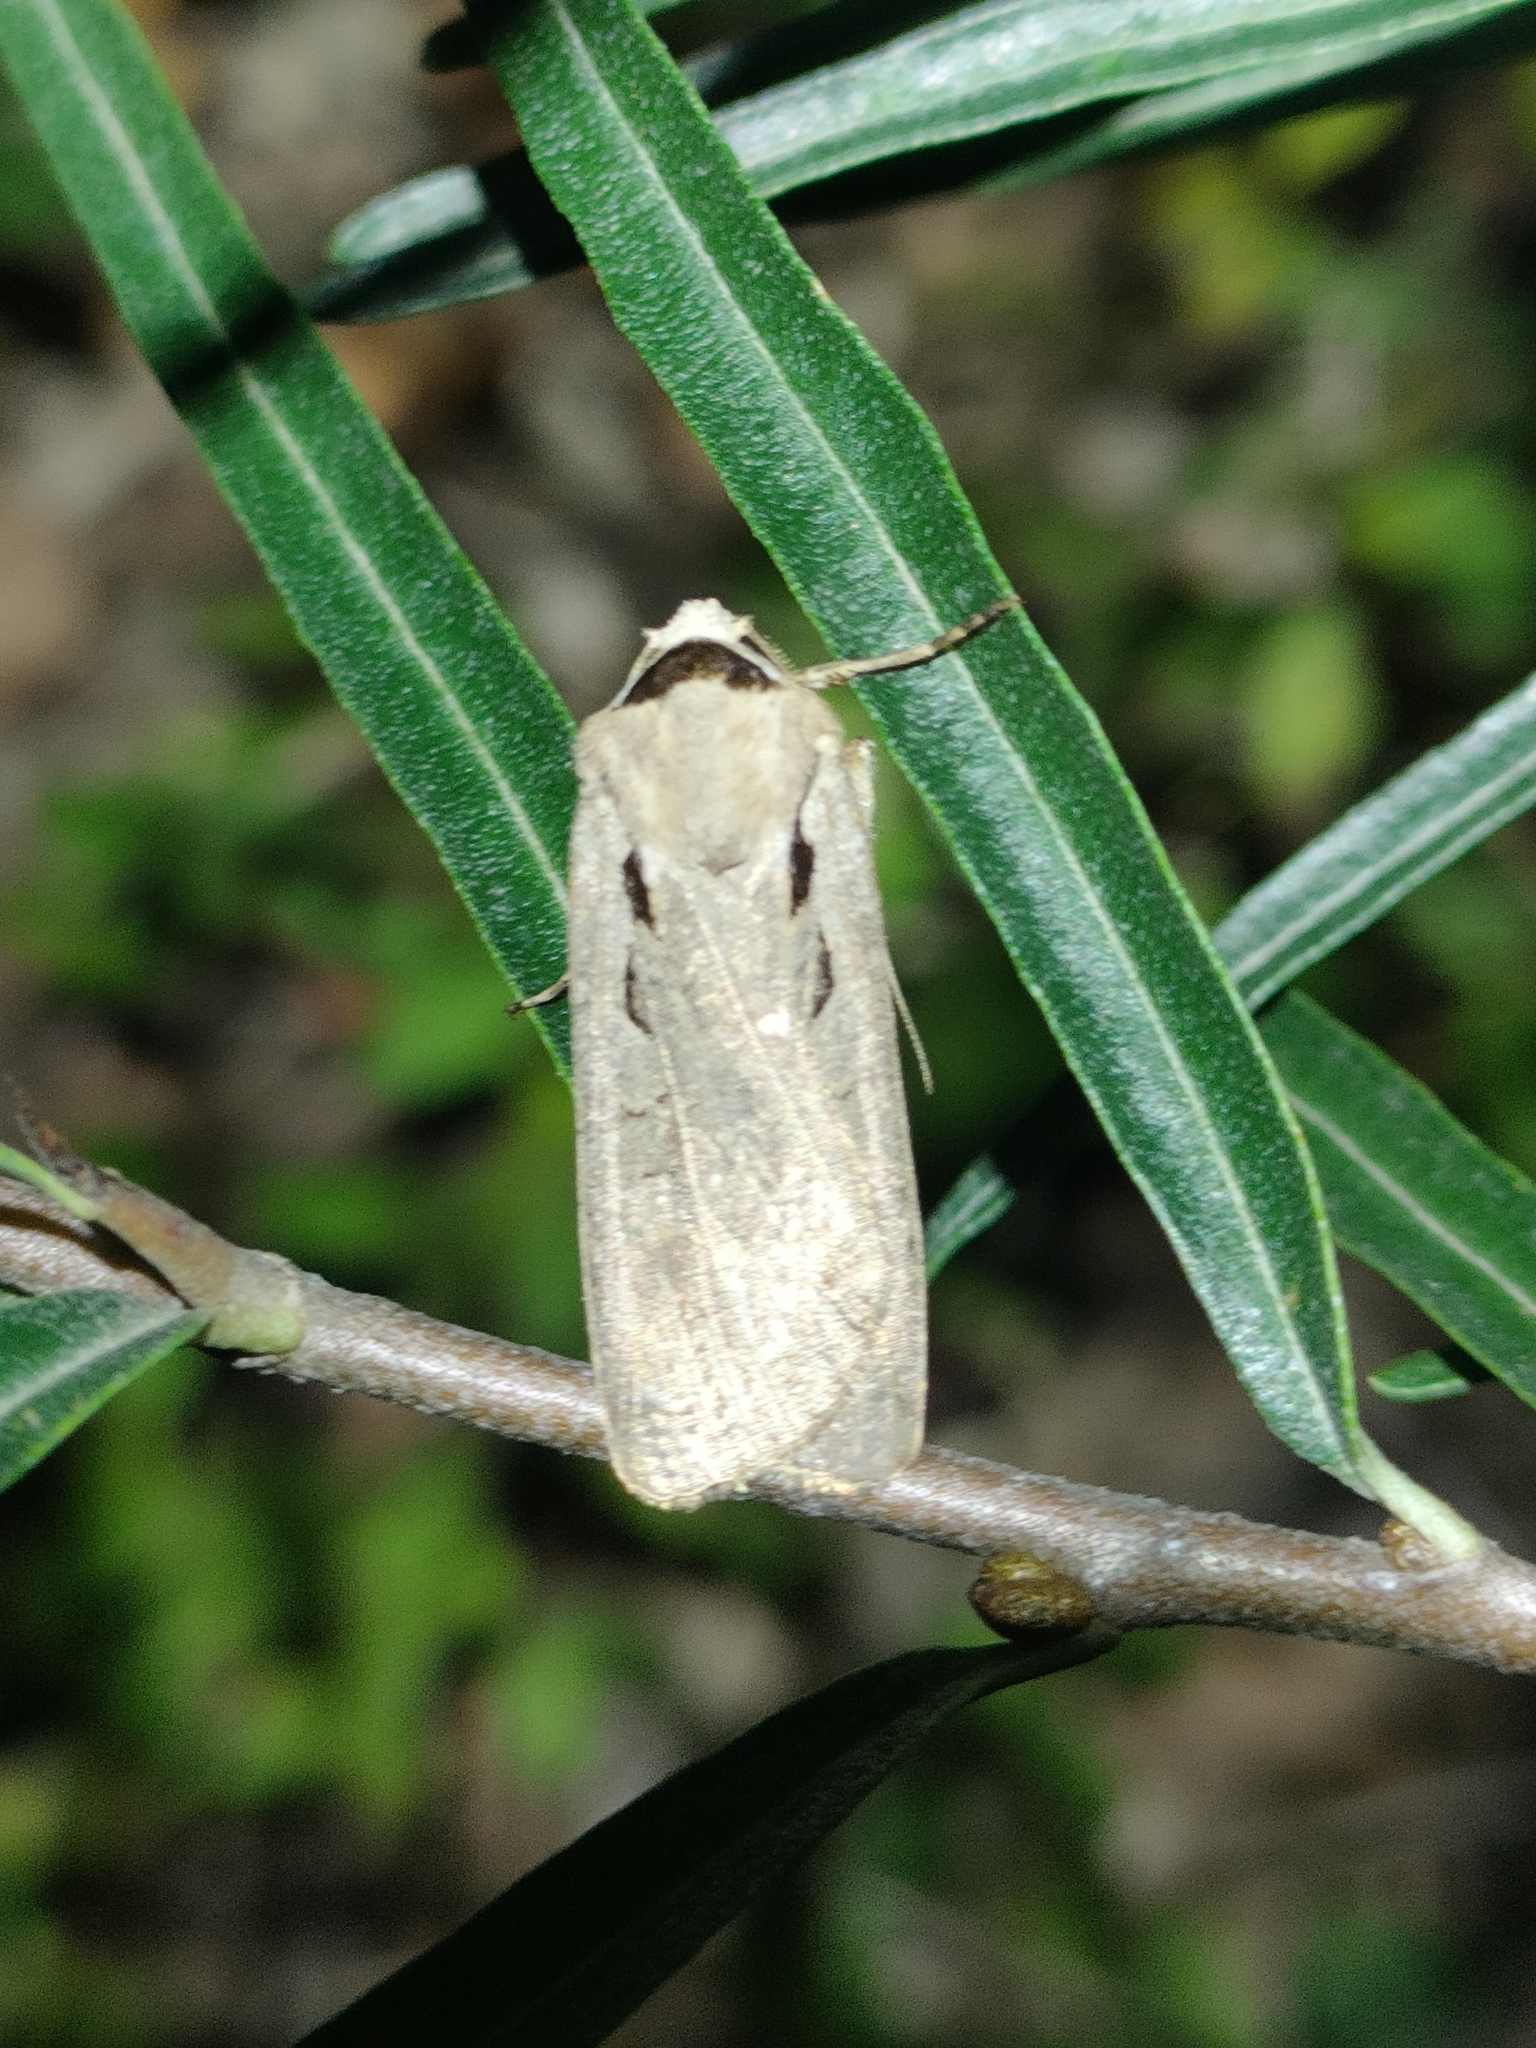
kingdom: Animalia
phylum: Arthropoda
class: Insecta
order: Lepidoptera
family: Noctuidae
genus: Basistriga
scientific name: Basistriga flammatra
